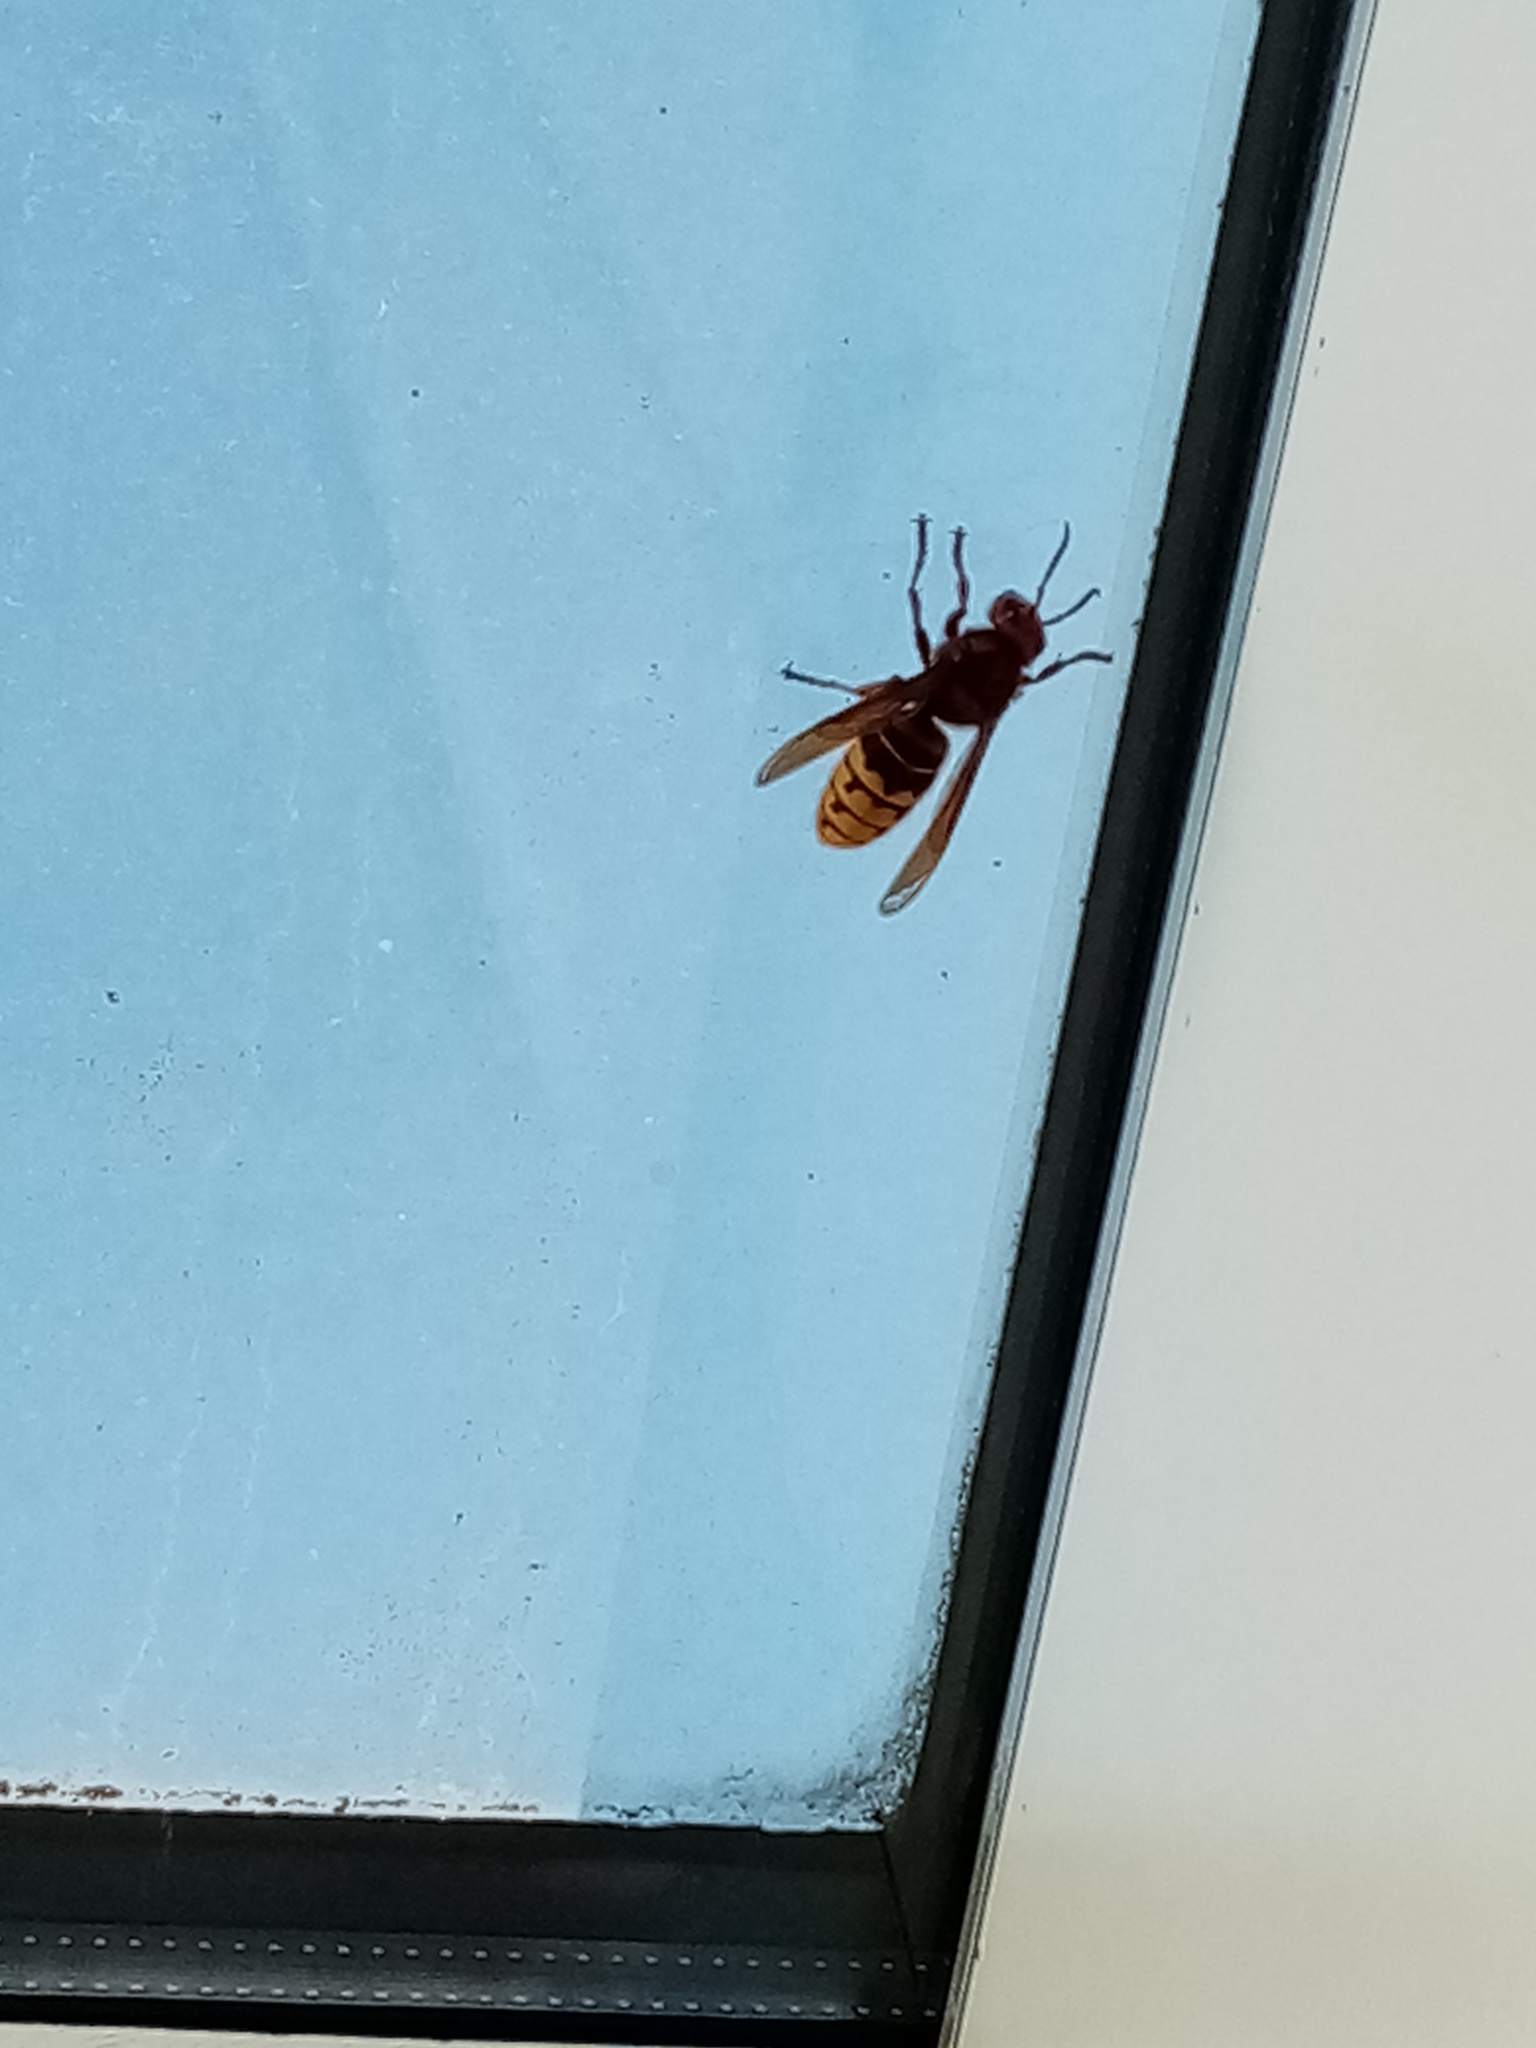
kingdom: Animalia
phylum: Arthropoda
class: Insecta
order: Hymenoptera
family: Vespidae
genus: Vespa
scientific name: Vespa crabro
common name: Hornet
